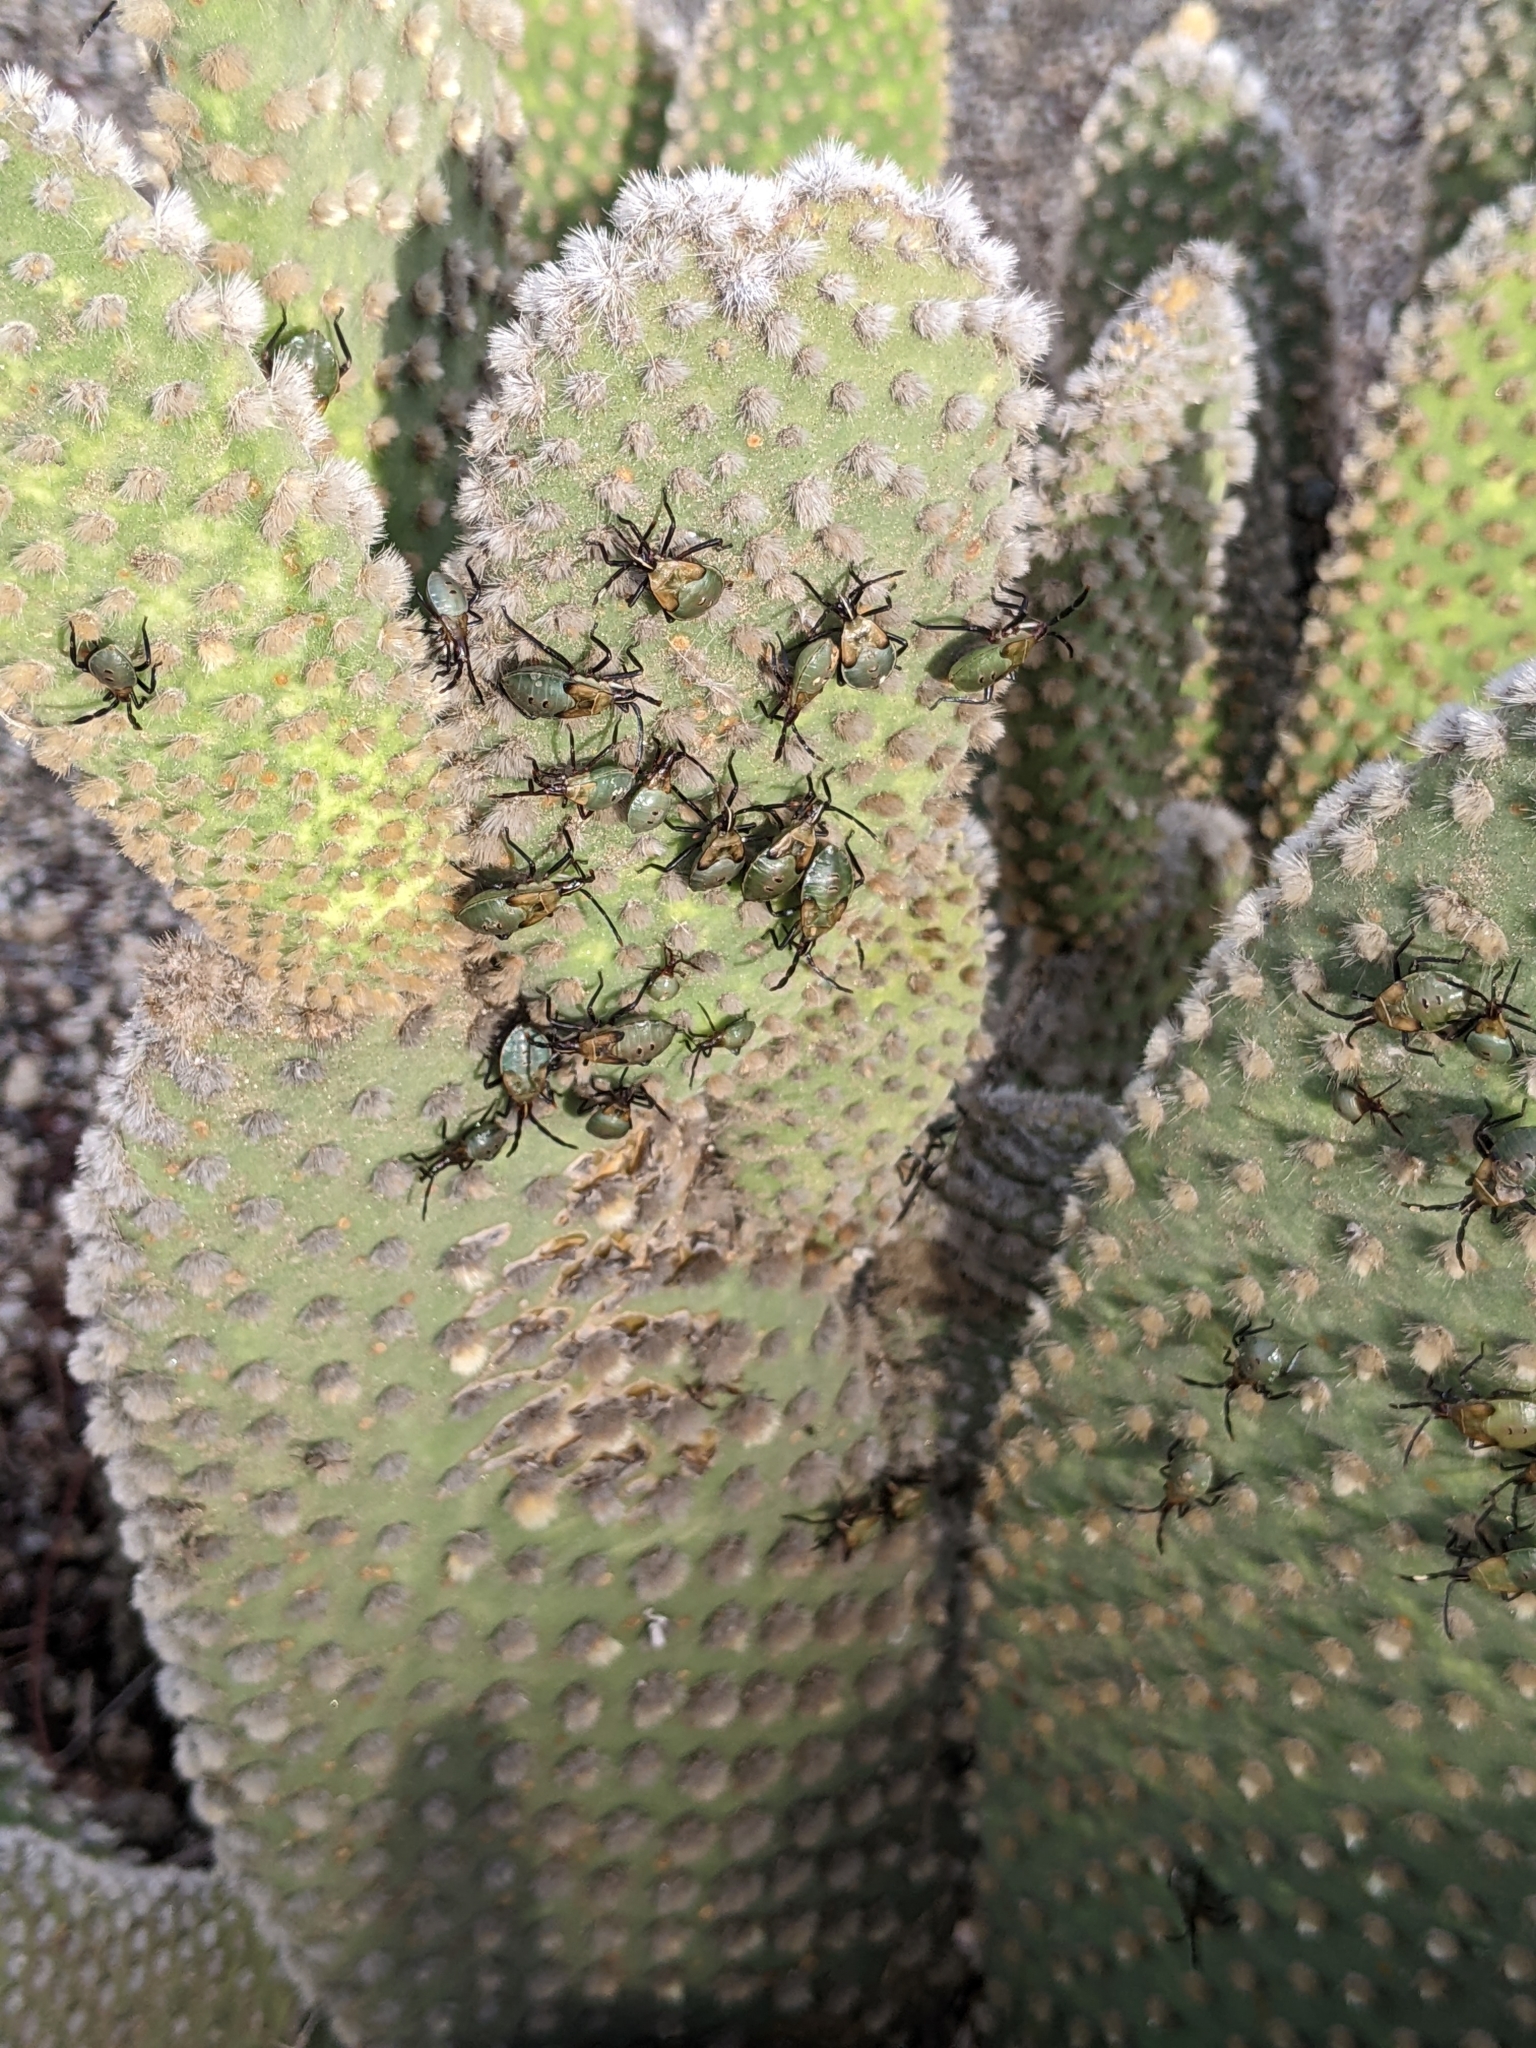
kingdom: Animalia
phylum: Arthropoda
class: Insecta
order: Hemiptera
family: Coreidae
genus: Chelinidea
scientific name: Chelinidea vittiger
